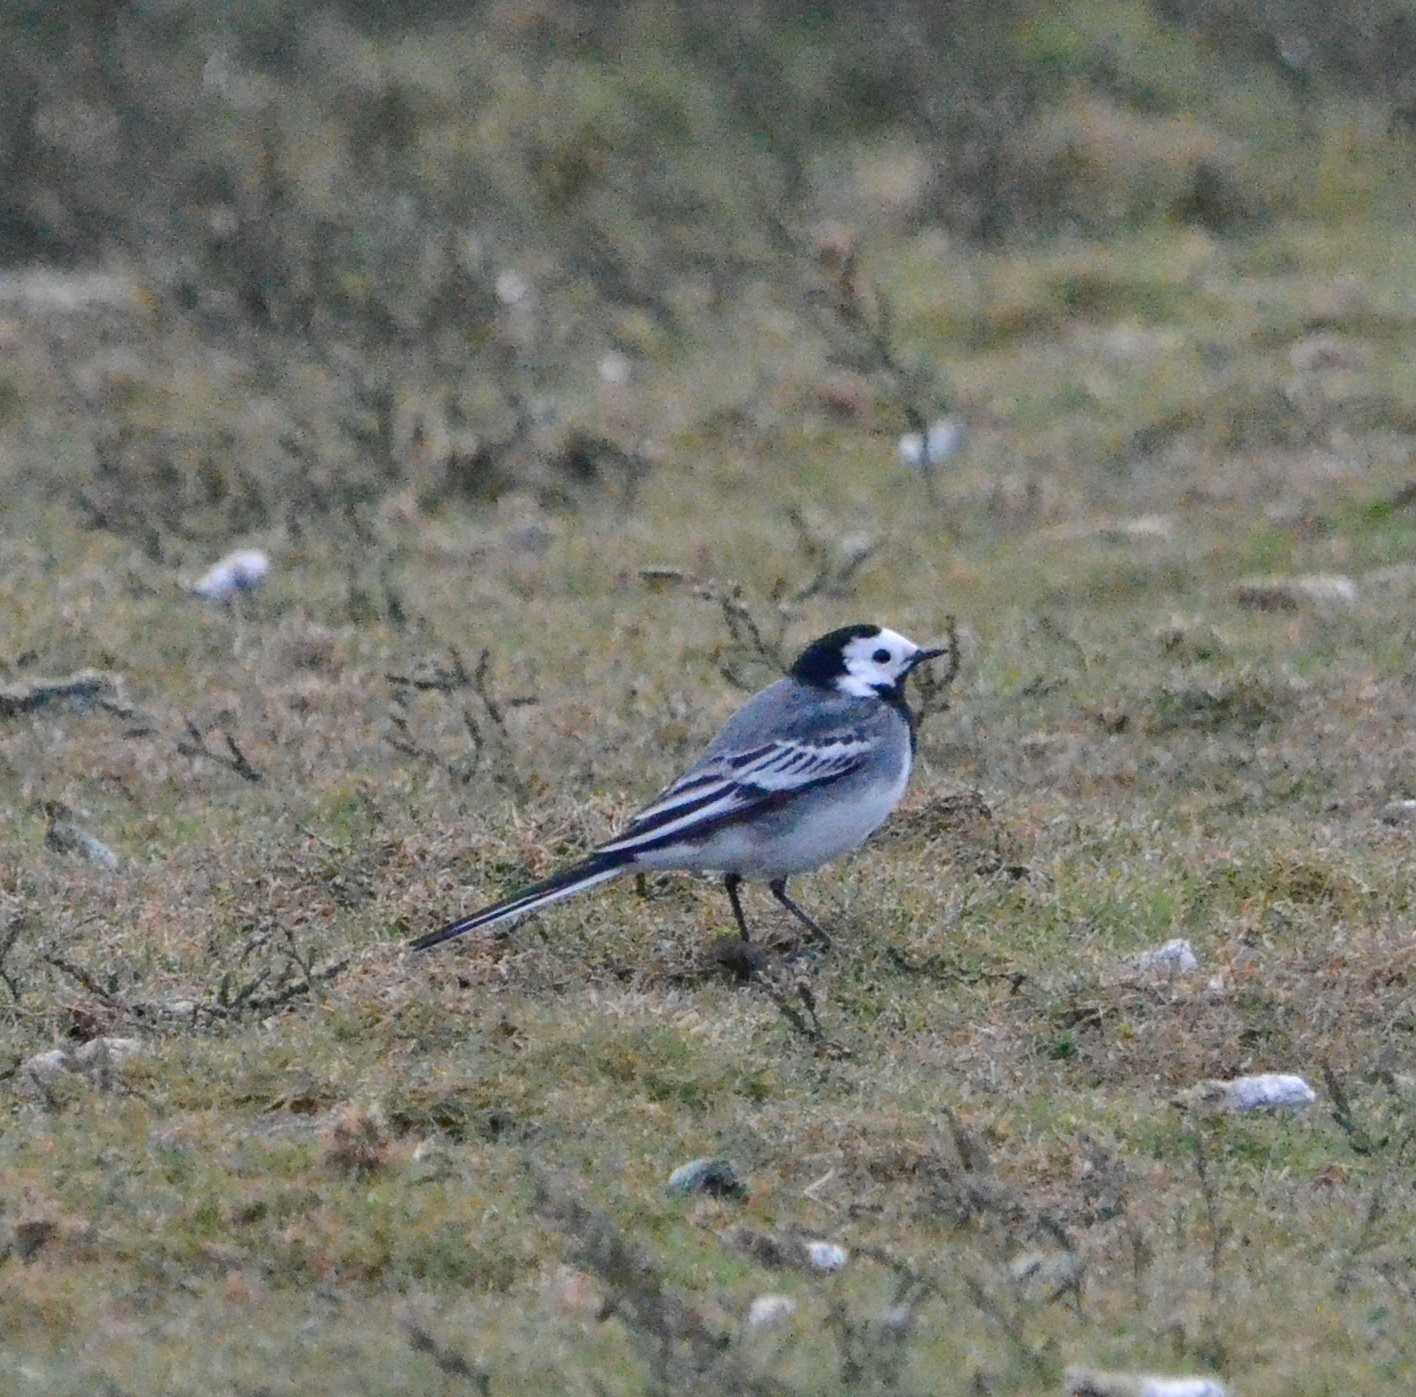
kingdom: Animalia
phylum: Chordata
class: Aves
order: Passeriformes
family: Motacillidae
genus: Motacilla
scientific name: Motacilla alba
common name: White wagtail
